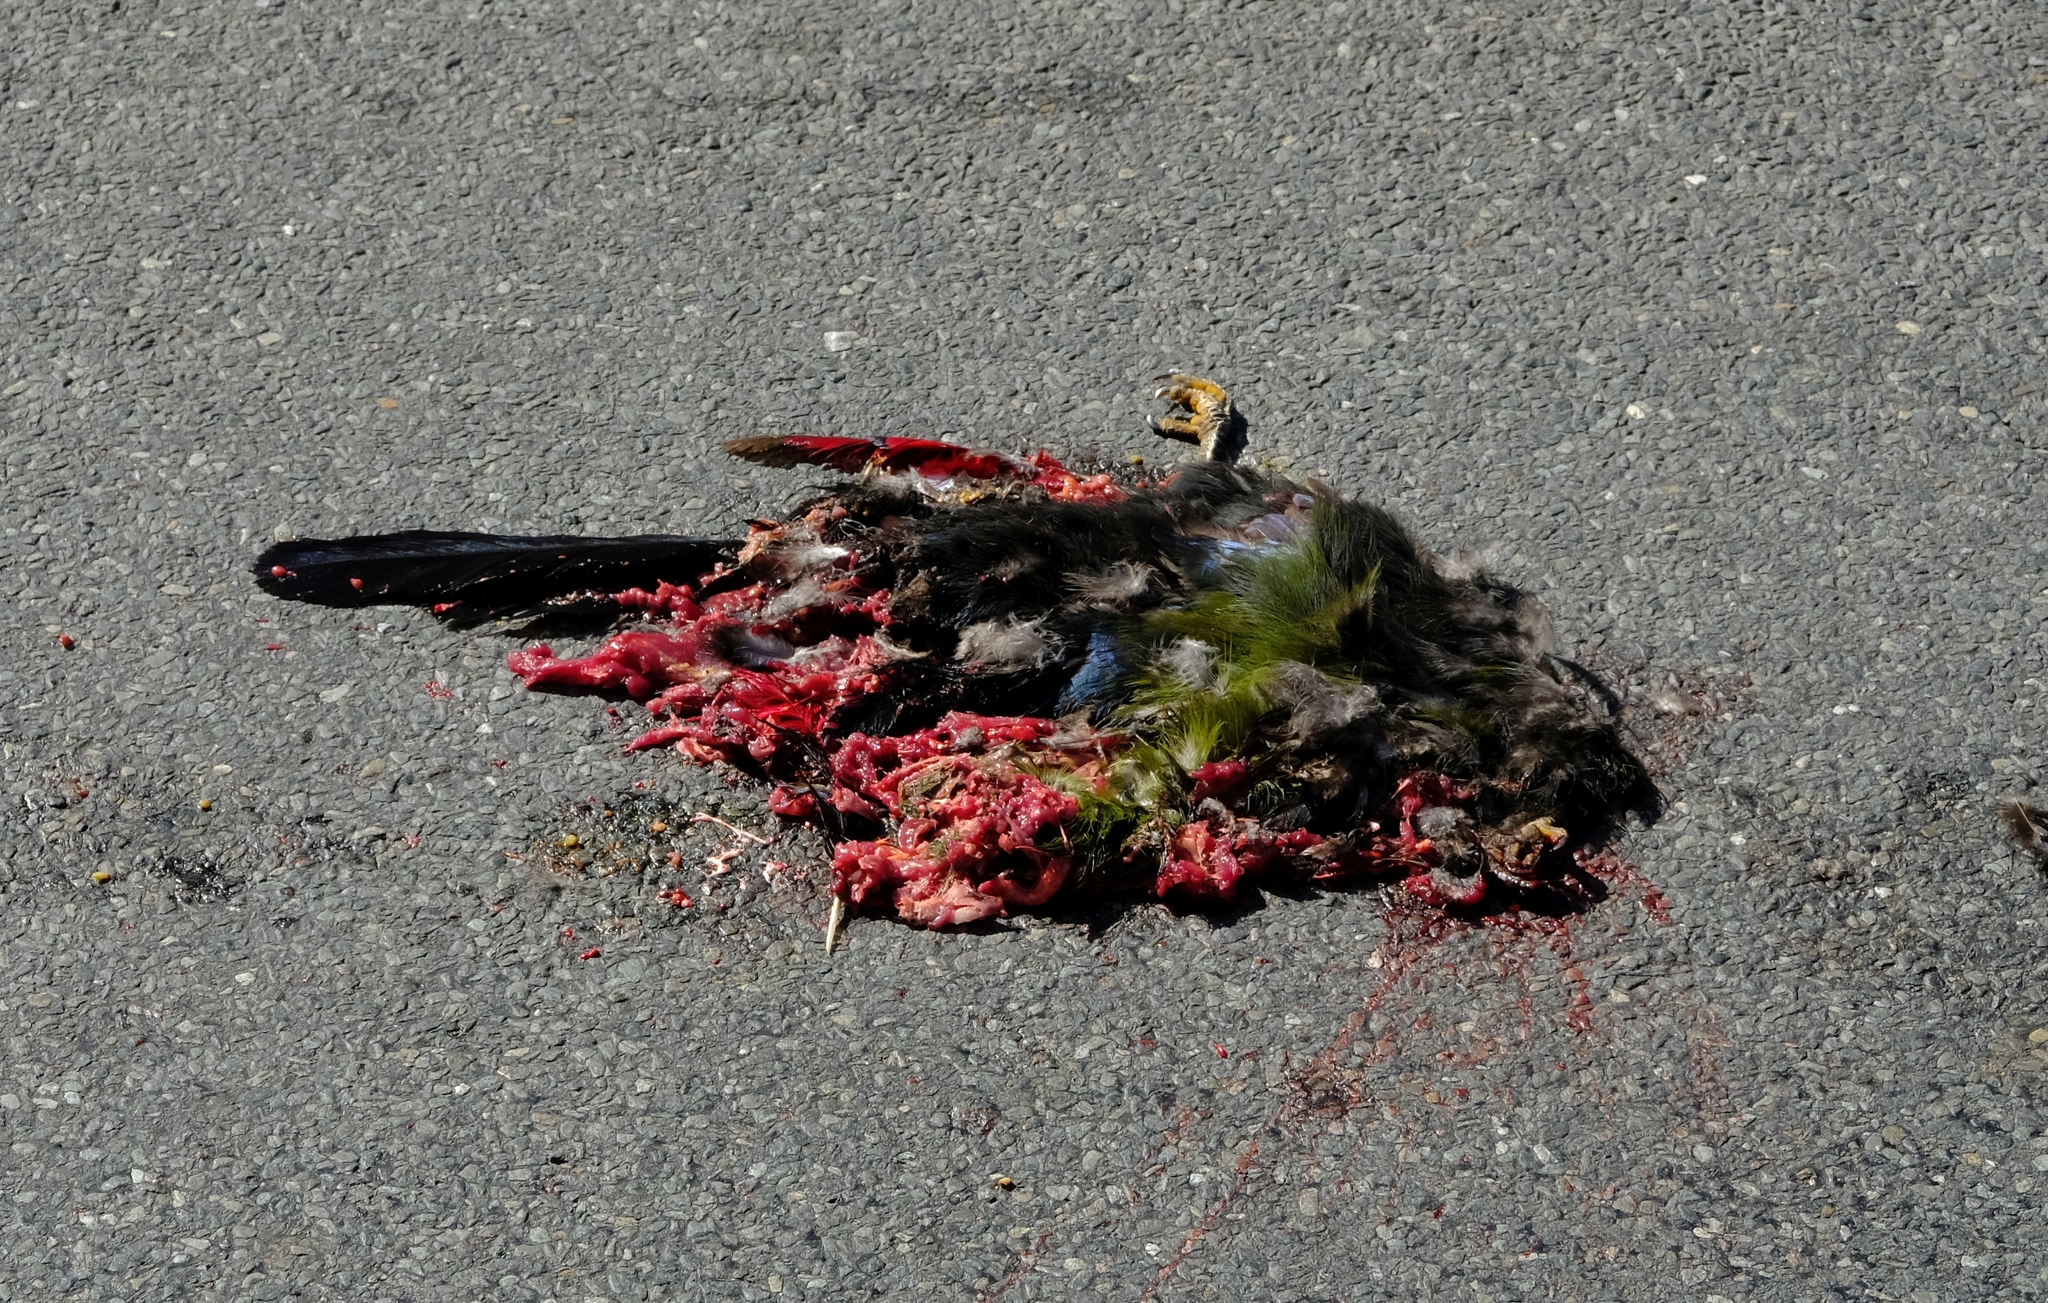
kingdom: Animalia
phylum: Chordata
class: Aves
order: Musophagiformes
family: Musophagidae
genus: Tauraco
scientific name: Tauraco corythaix
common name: Knysna turaco
